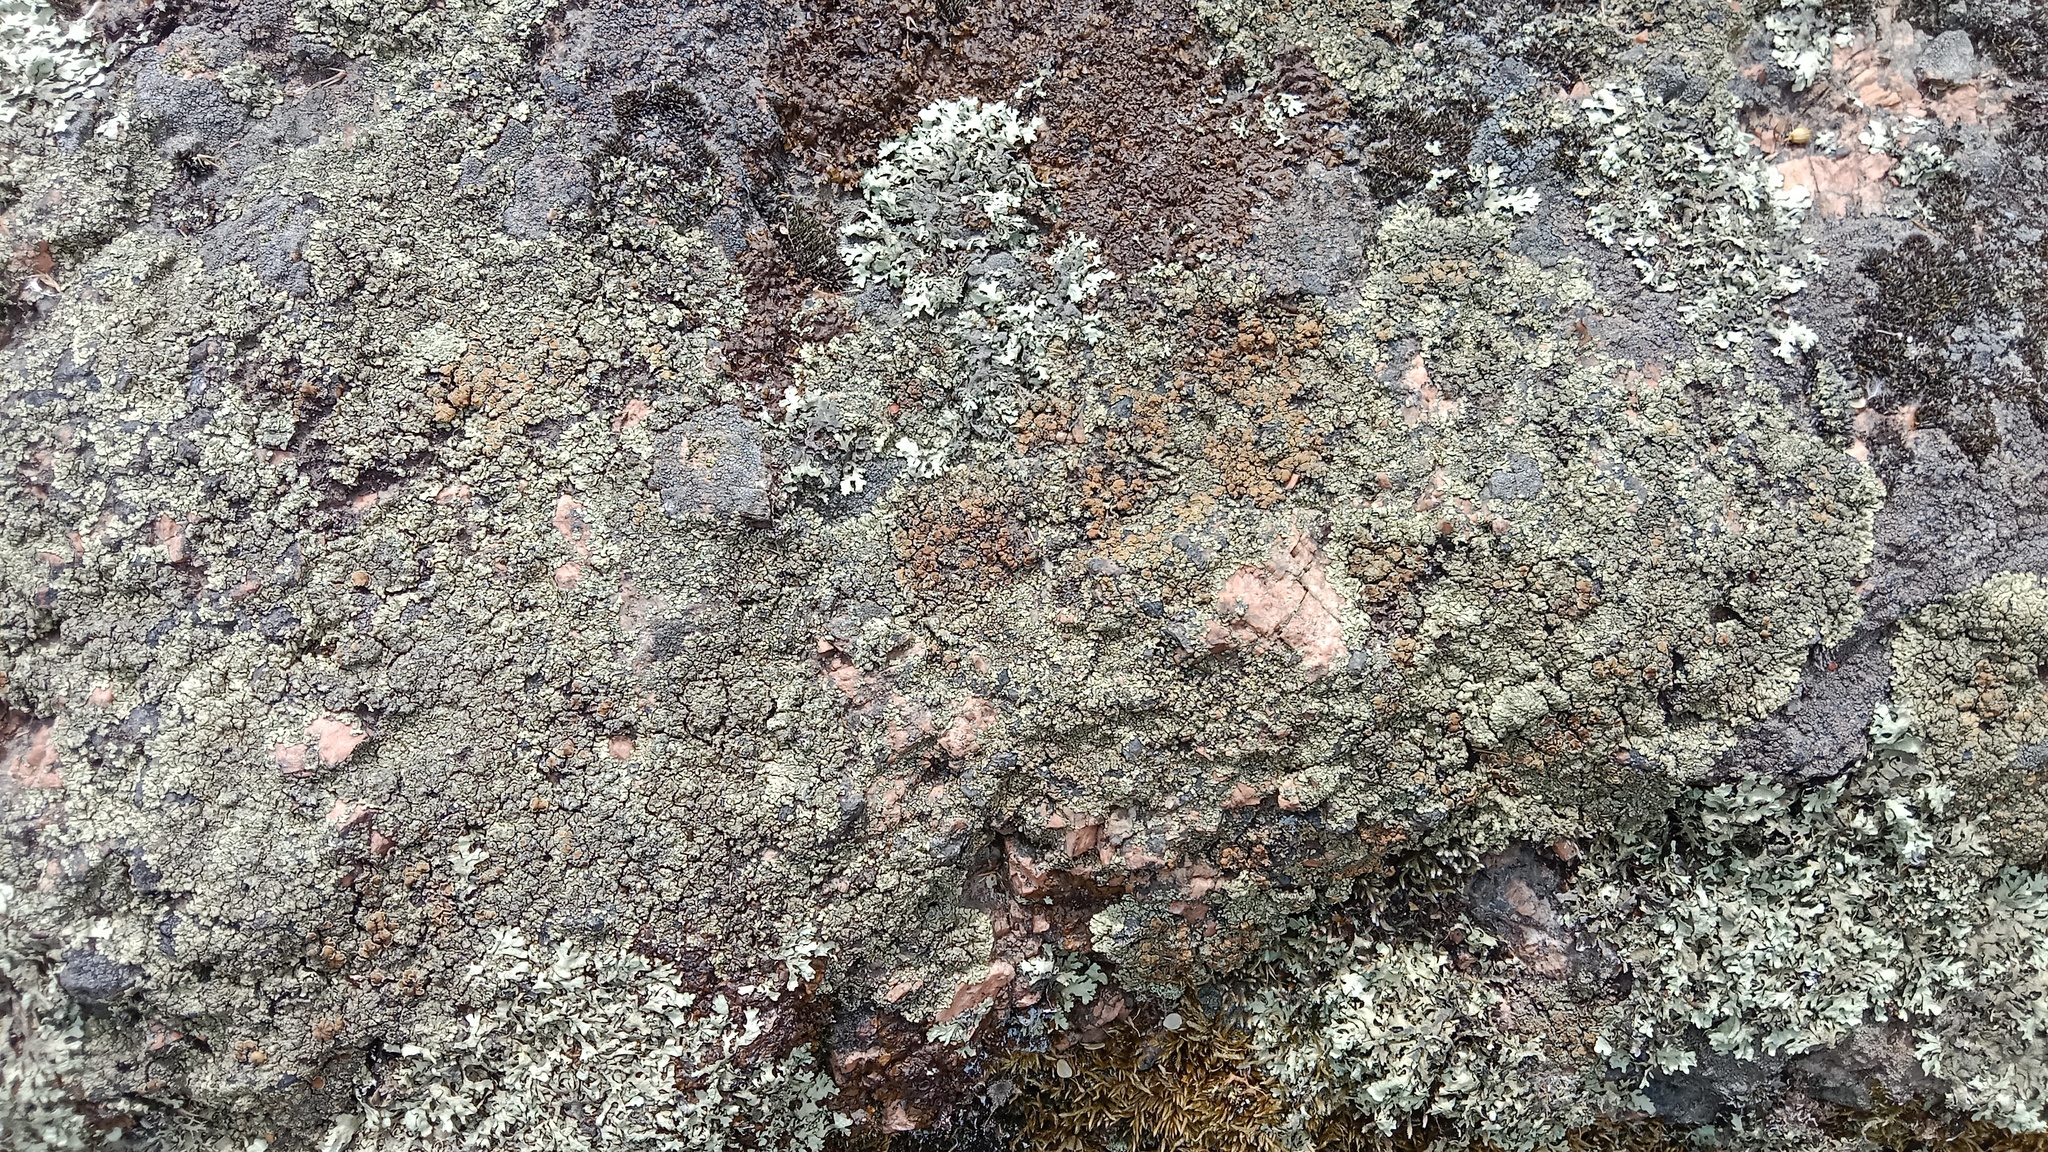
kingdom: Fungi
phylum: Ascomycota
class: Lecanoromycetes
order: Lecanorales
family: Lecanoraceae
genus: Protoparmeliopsis
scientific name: Protoparmeliopsis muralis
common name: Stonewall rim lichen
